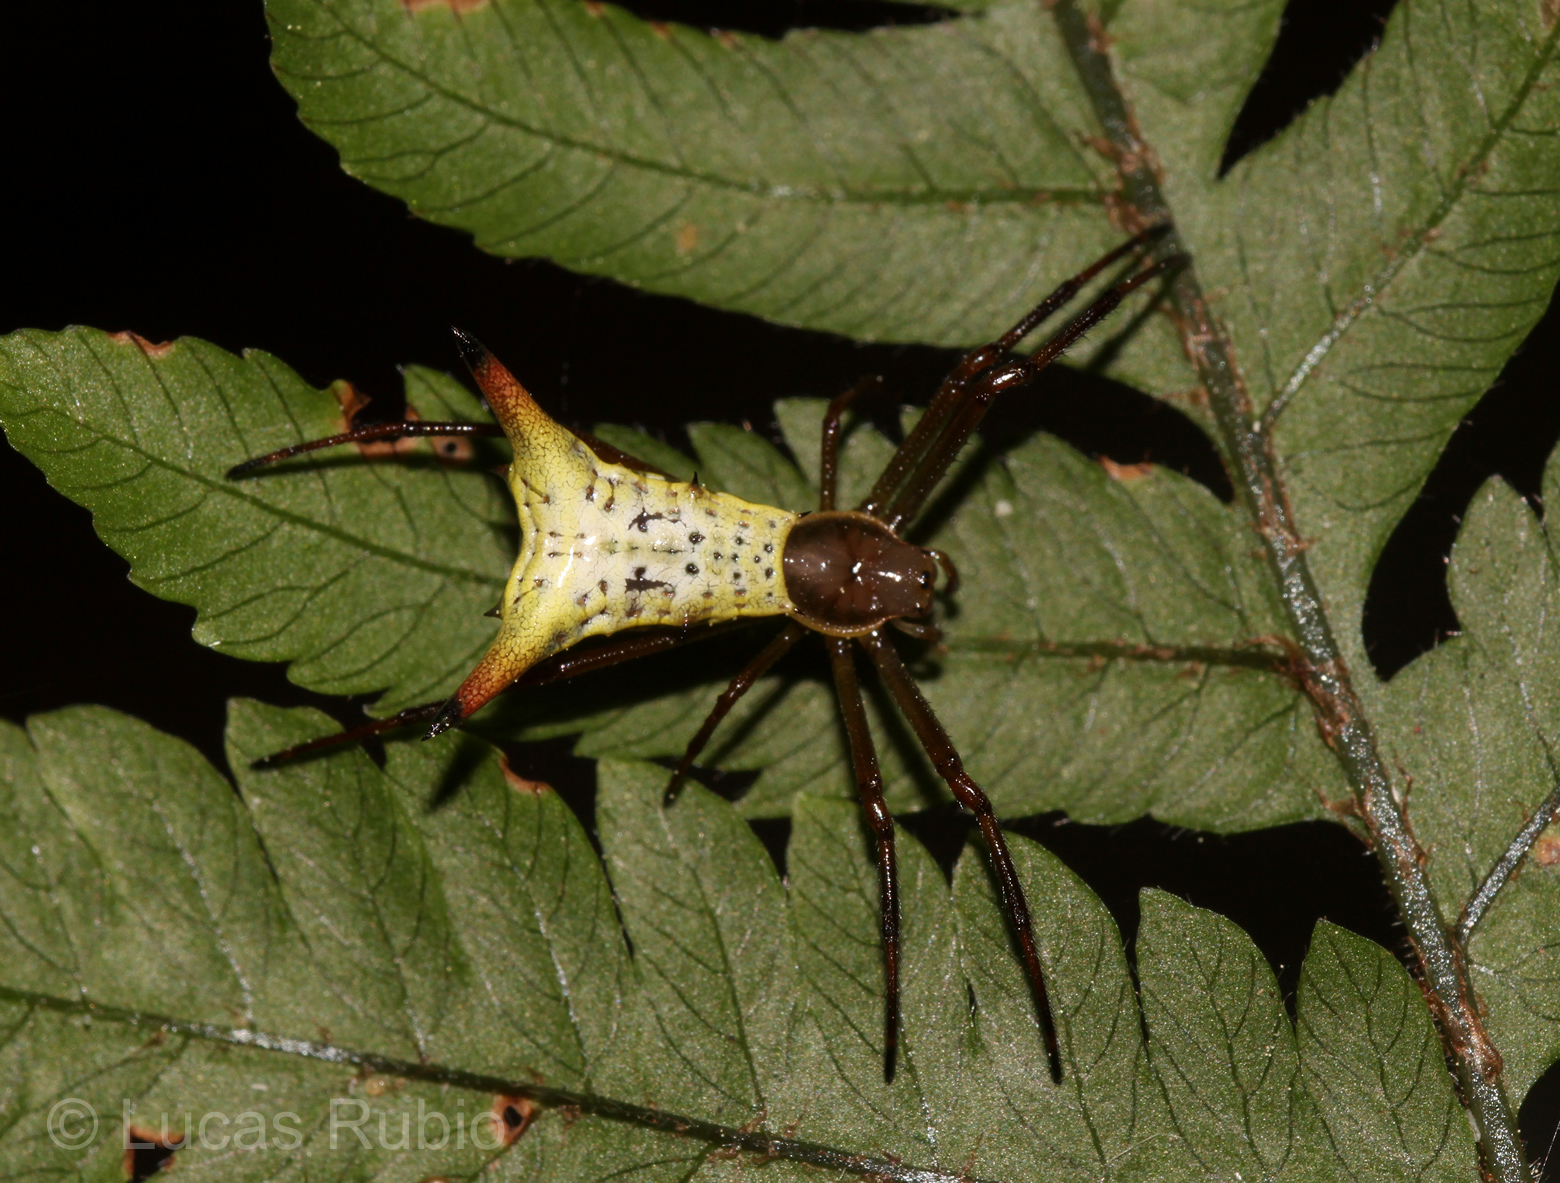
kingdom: Animalia
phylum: Arthropoda
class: Arachnida
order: Araneae
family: Araneidae
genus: Micrathena
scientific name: Micrathena crassispina
